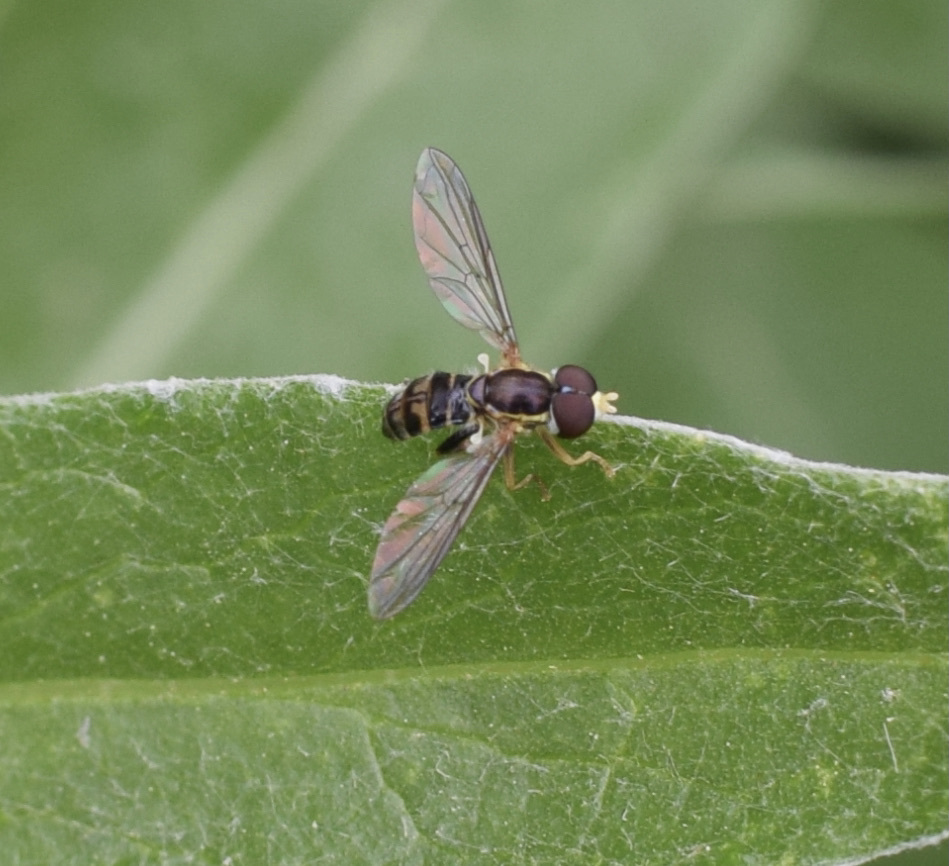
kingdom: Animalia
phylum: Arthropoda
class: Insecta
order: Diptera
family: Syrphidae
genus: Toxomerus
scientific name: Toxomerus geminatus
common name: Eastern calligrapher
